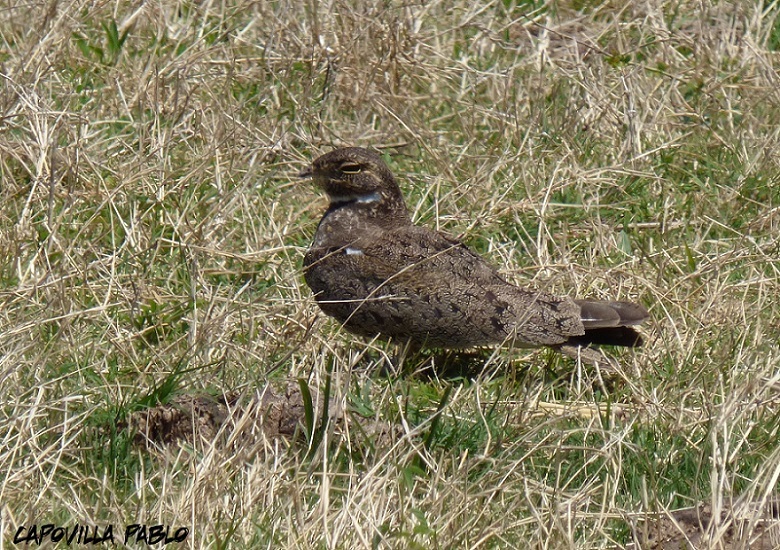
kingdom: Animalia
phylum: Chordata
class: Aves
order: Caprimulgiformes
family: Caprimulgidae
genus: Chordeiles
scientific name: Chordeiles nacunda
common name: Nacunda nighthawk
